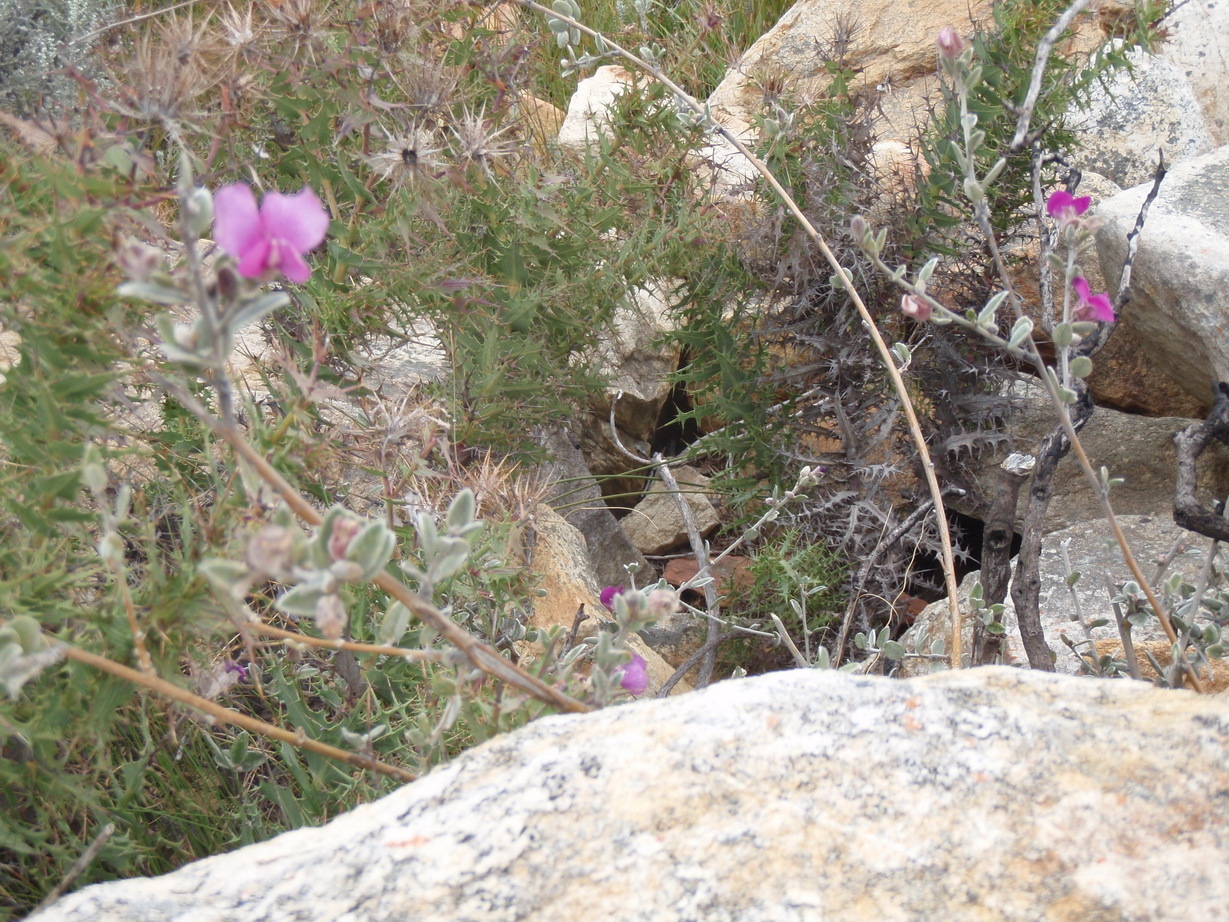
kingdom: Plantae
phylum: Tracheophyta
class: Magnoliopsida
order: Fabales
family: Fabaceae
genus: Podalyria
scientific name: Podalyria burchellii
